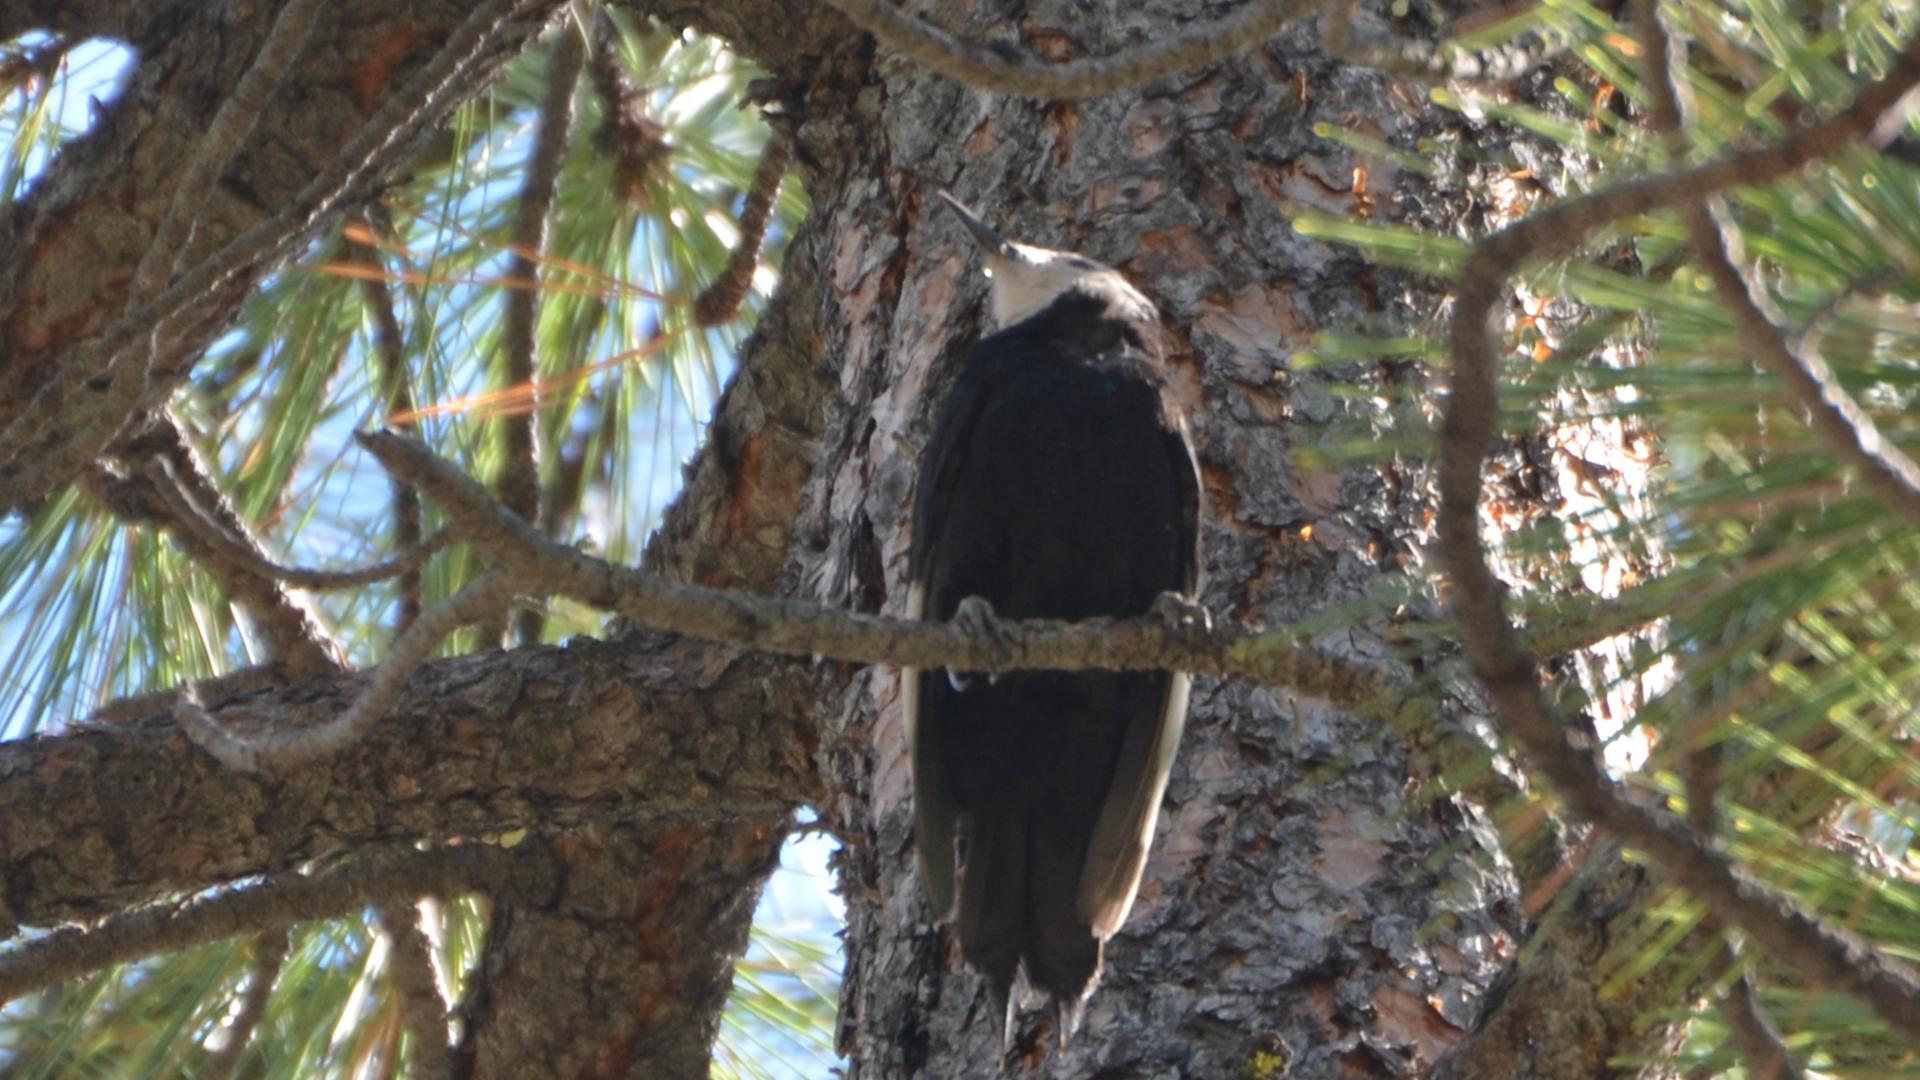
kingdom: Animalia
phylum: Chordata
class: Aves
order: Piciformes
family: Picidae
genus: Leuconotopicus
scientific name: Leuconotopicus albolarvatus
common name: White-headed woodpecker
